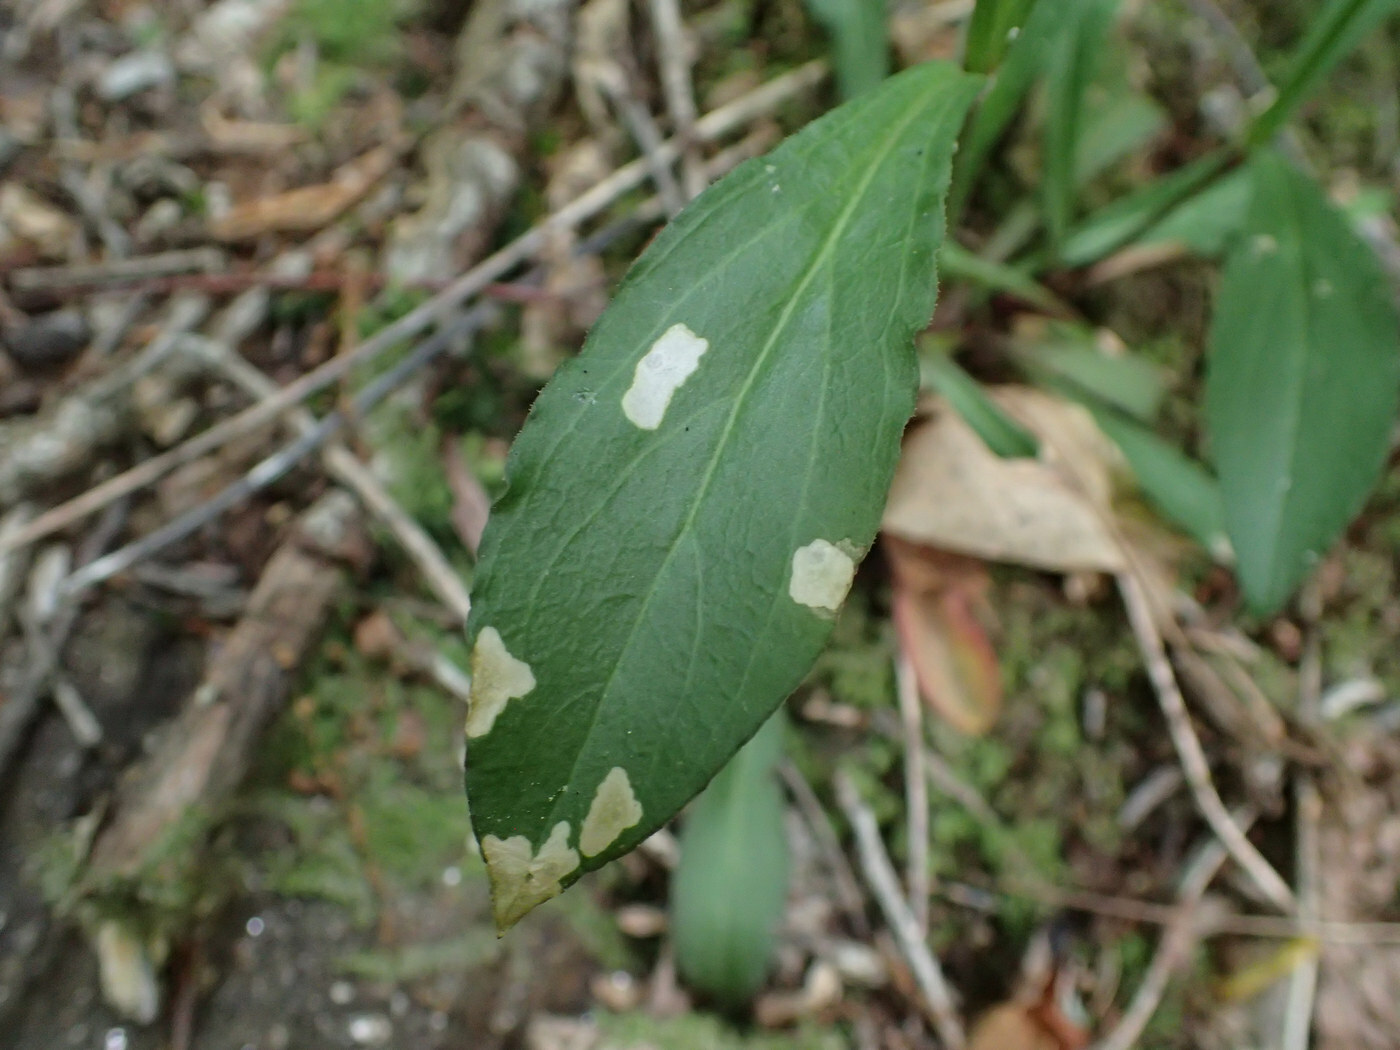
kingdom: Animalia
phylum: Arthropoda
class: Insecta
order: Lepidoptera
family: Coleophoridae
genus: Coleophora
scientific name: Coleophora apicialbella
